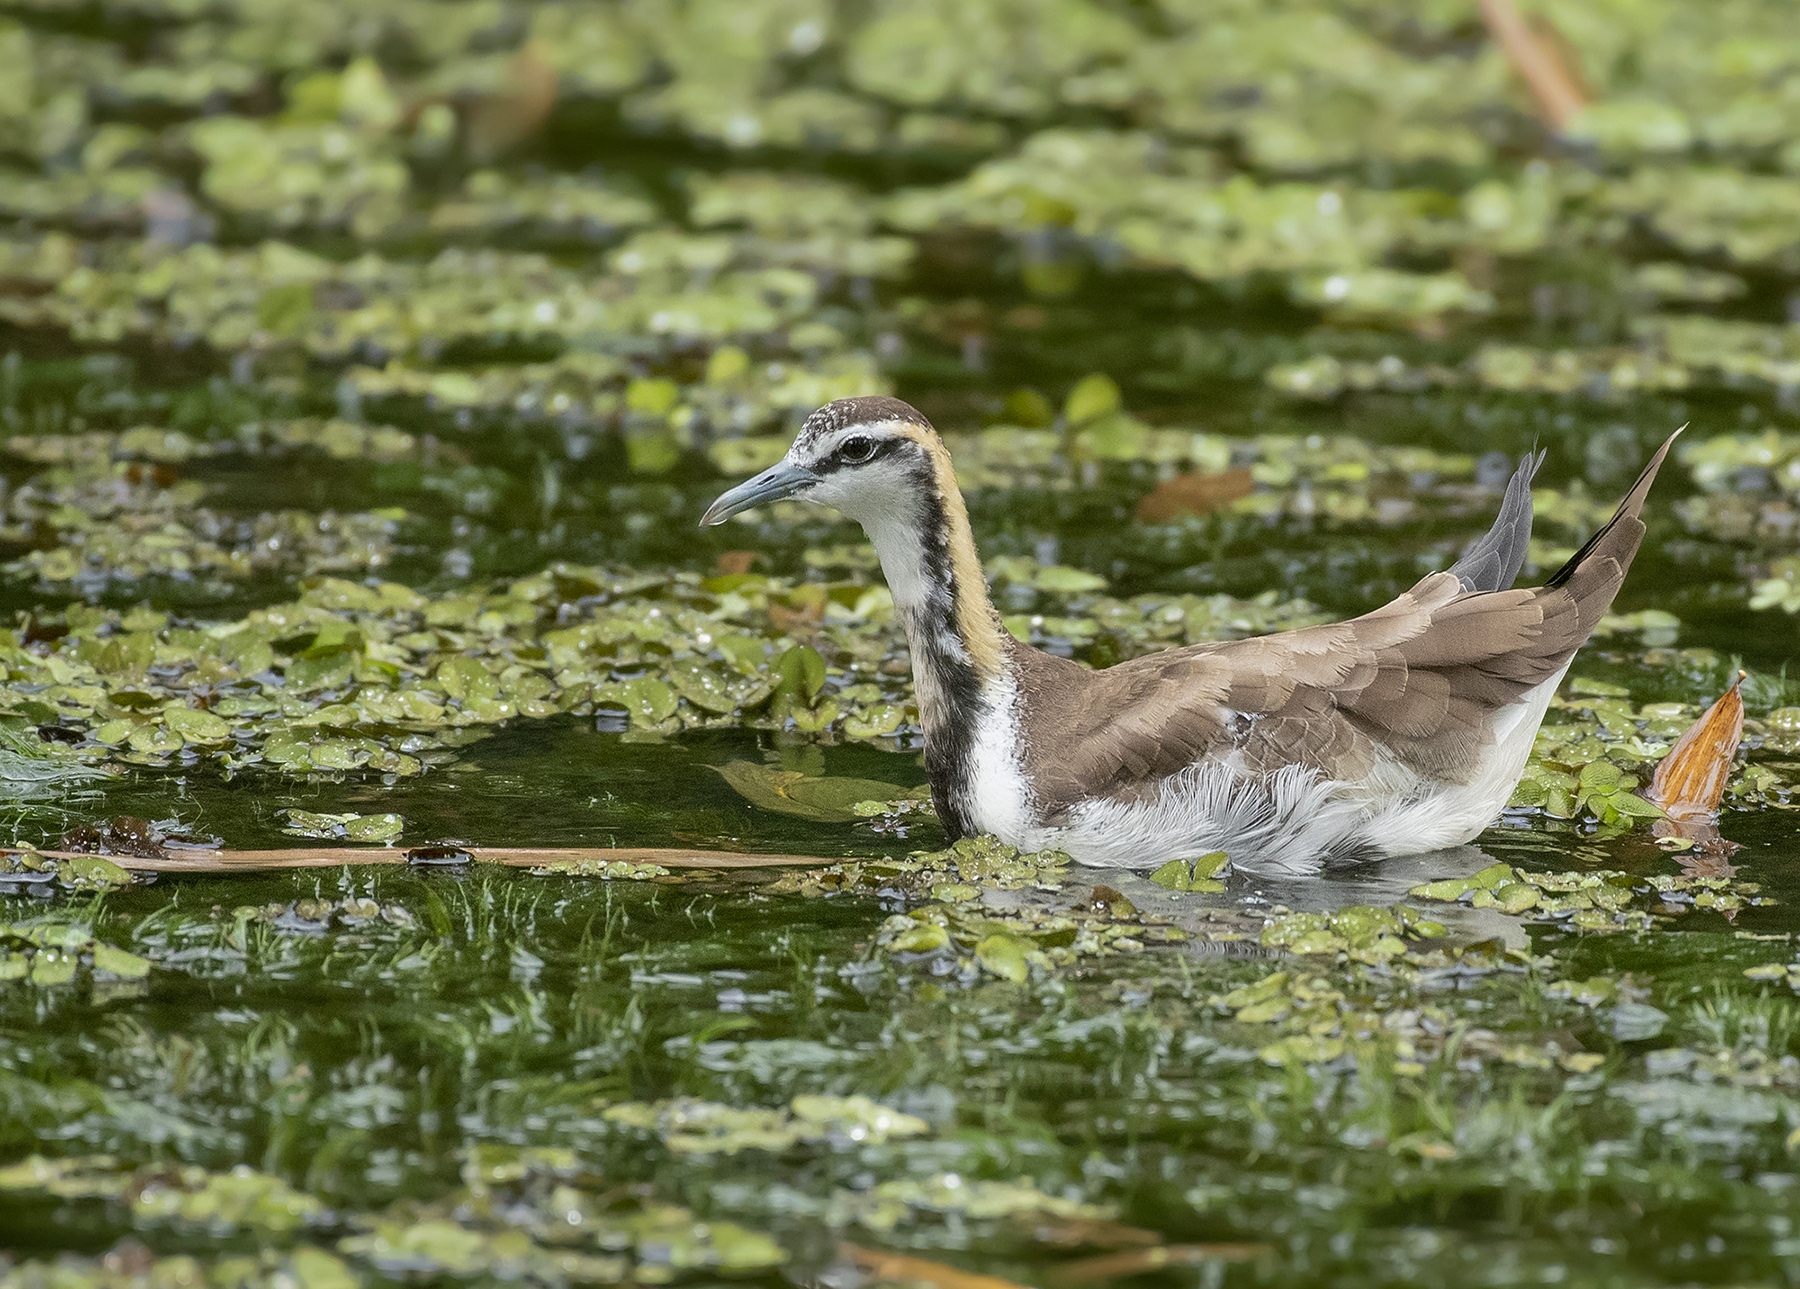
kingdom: Animalia
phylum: Chordata
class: Aves
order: Charadriiformes
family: Jacanidae
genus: Hydrophasianus
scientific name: Hydrophasianus chirurgus
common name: Pheasant-tailed jacana
